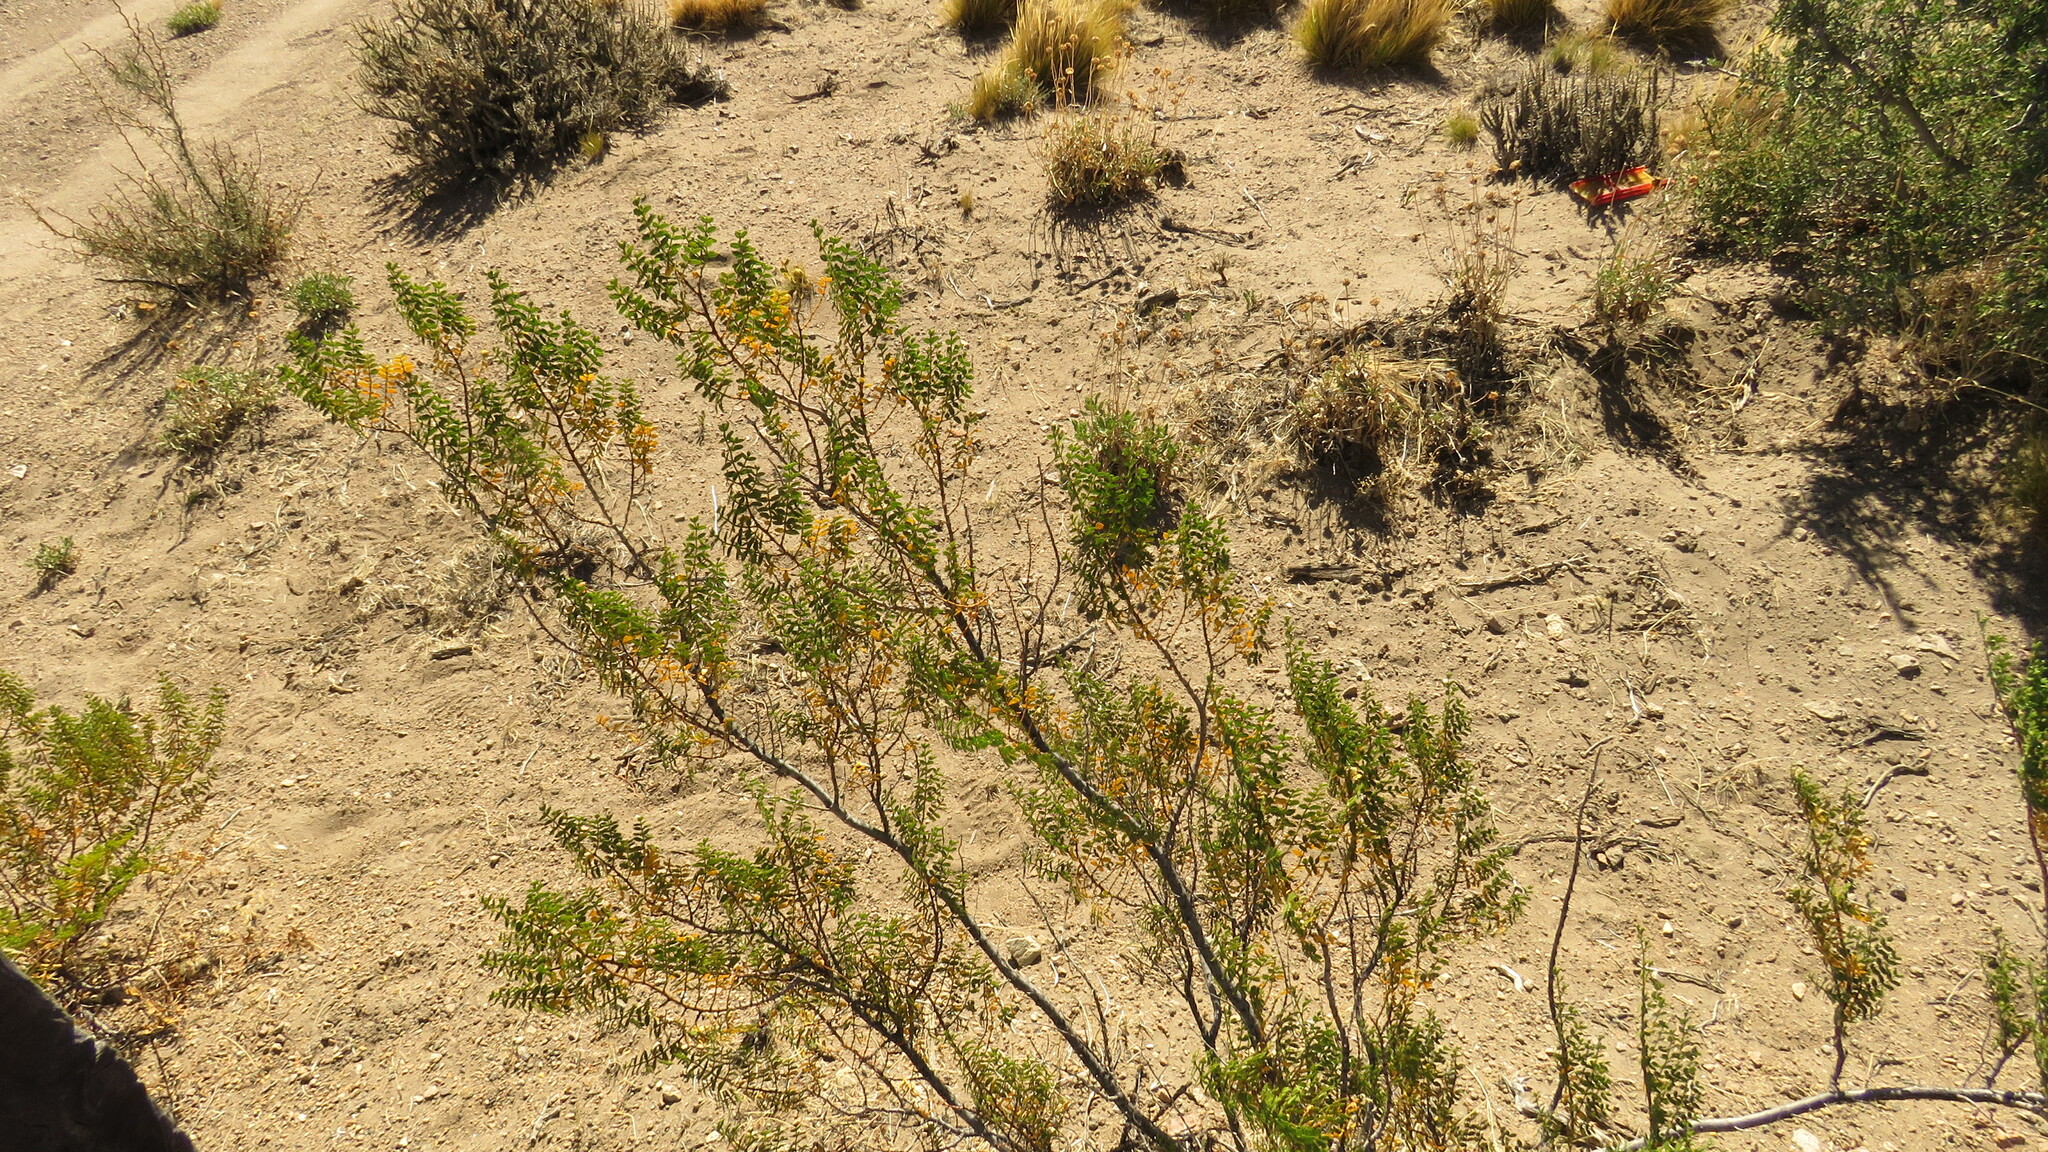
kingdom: Plantae
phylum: Tracheophyta
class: Magnoliopsida
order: Zygophyllales
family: Zygophyllaceae
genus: Larrea
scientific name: Larrea nitida
